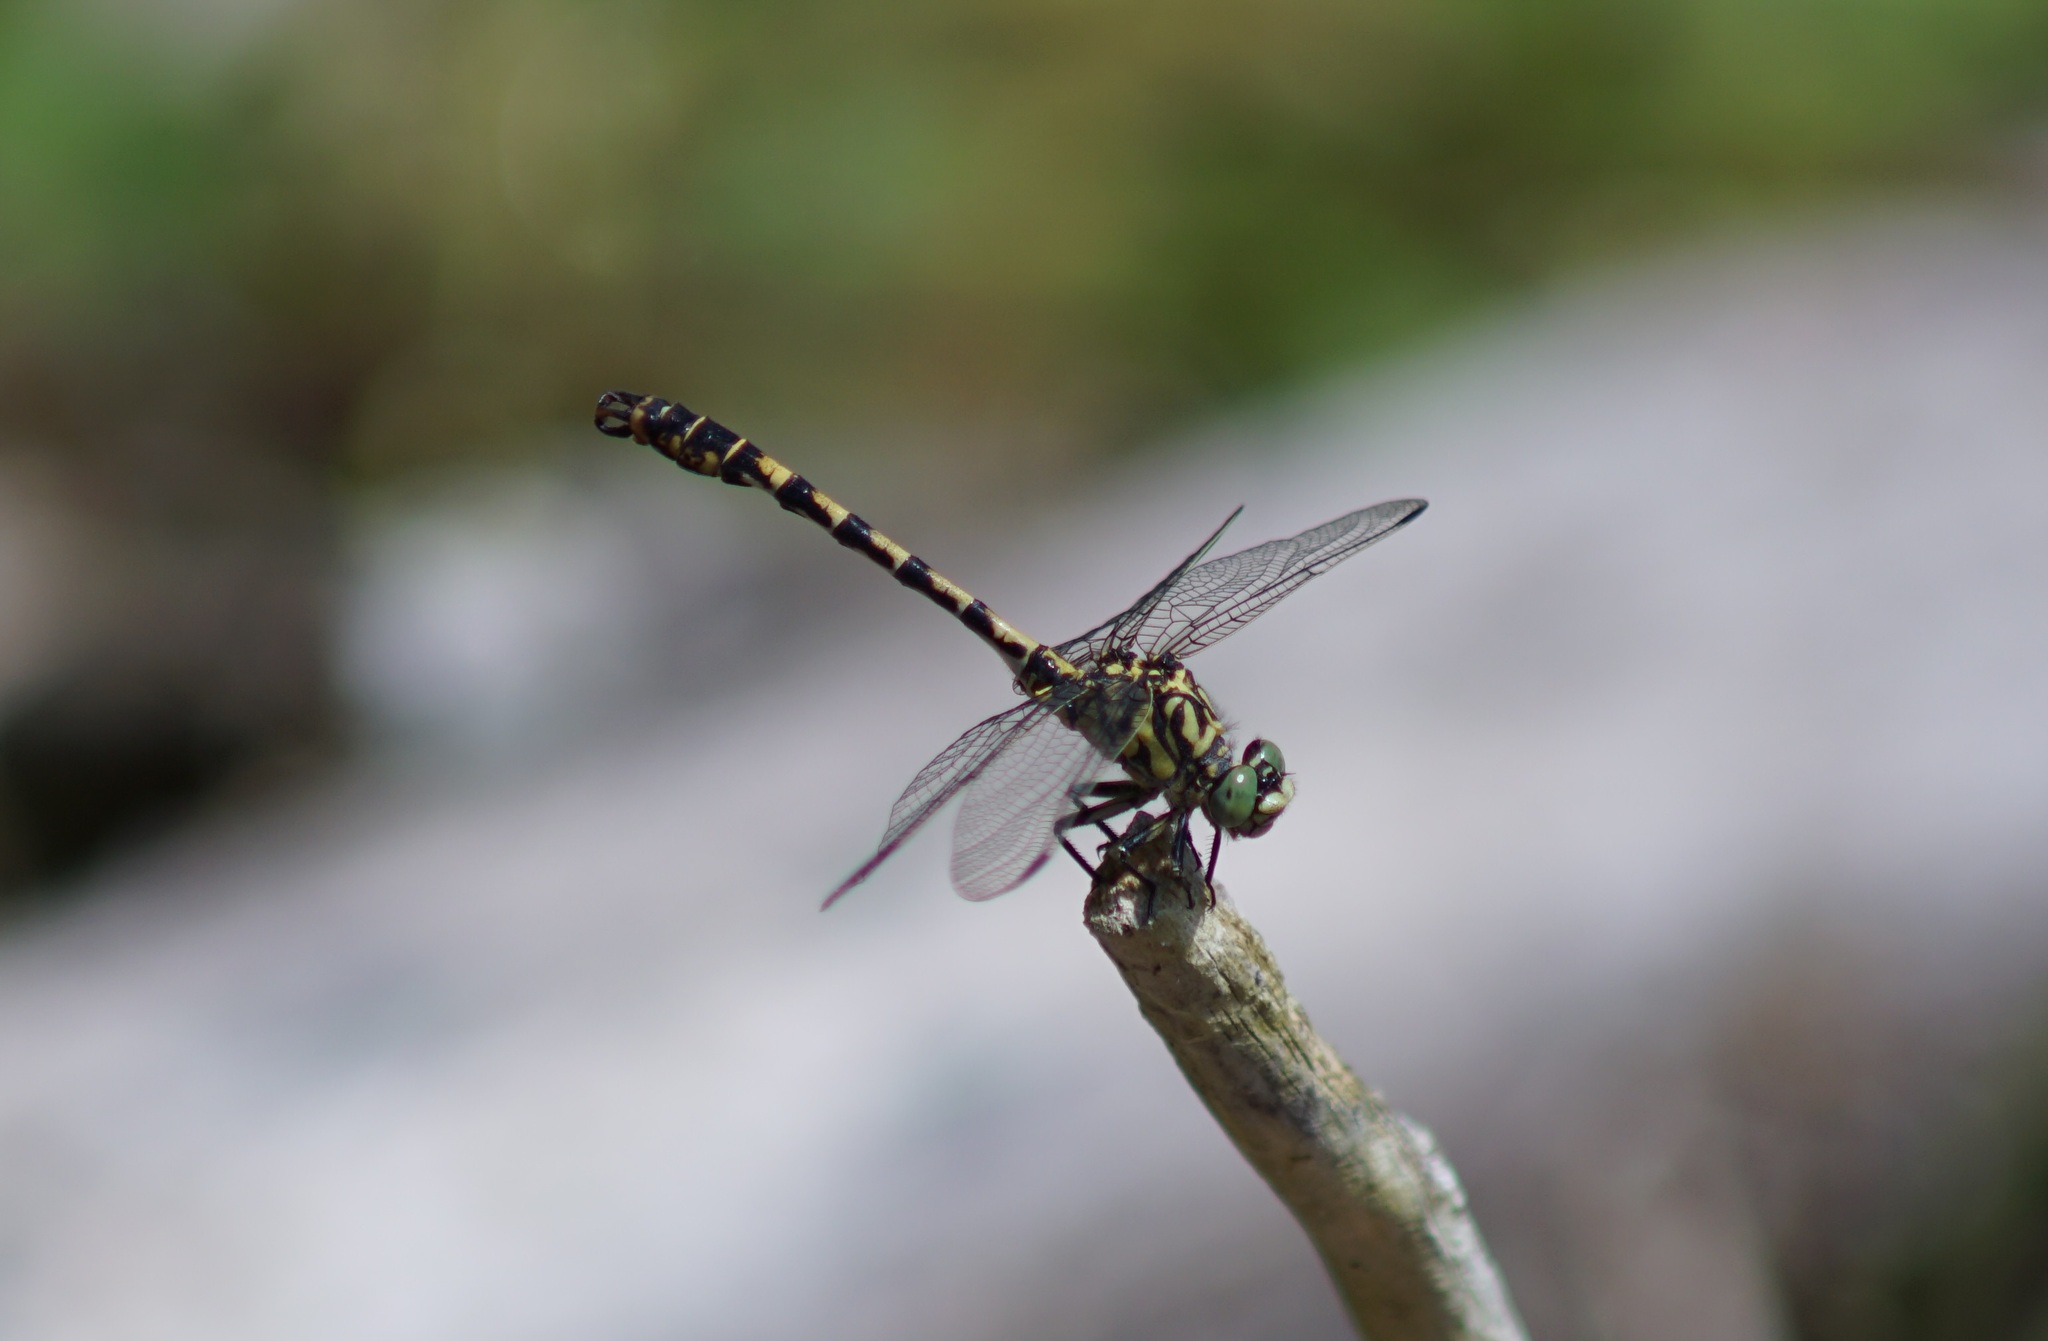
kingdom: Animalia
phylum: Arthropoda
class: Insecta
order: Odonata
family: Gomphidae
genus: Onychogomphus
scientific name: Onychogomphus forcipatus
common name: Small pincertail
